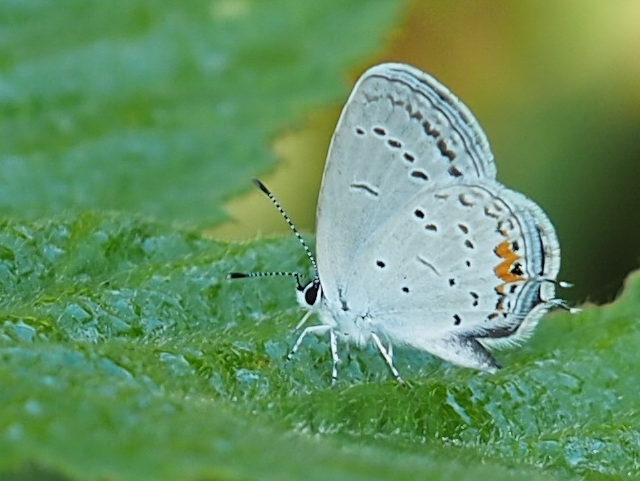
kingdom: Animalia
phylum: Arthropoda
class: Insecta
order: Lepidoptera
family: Lycaenidae
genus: Elkalyce
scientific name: Elkalyce comyntas
